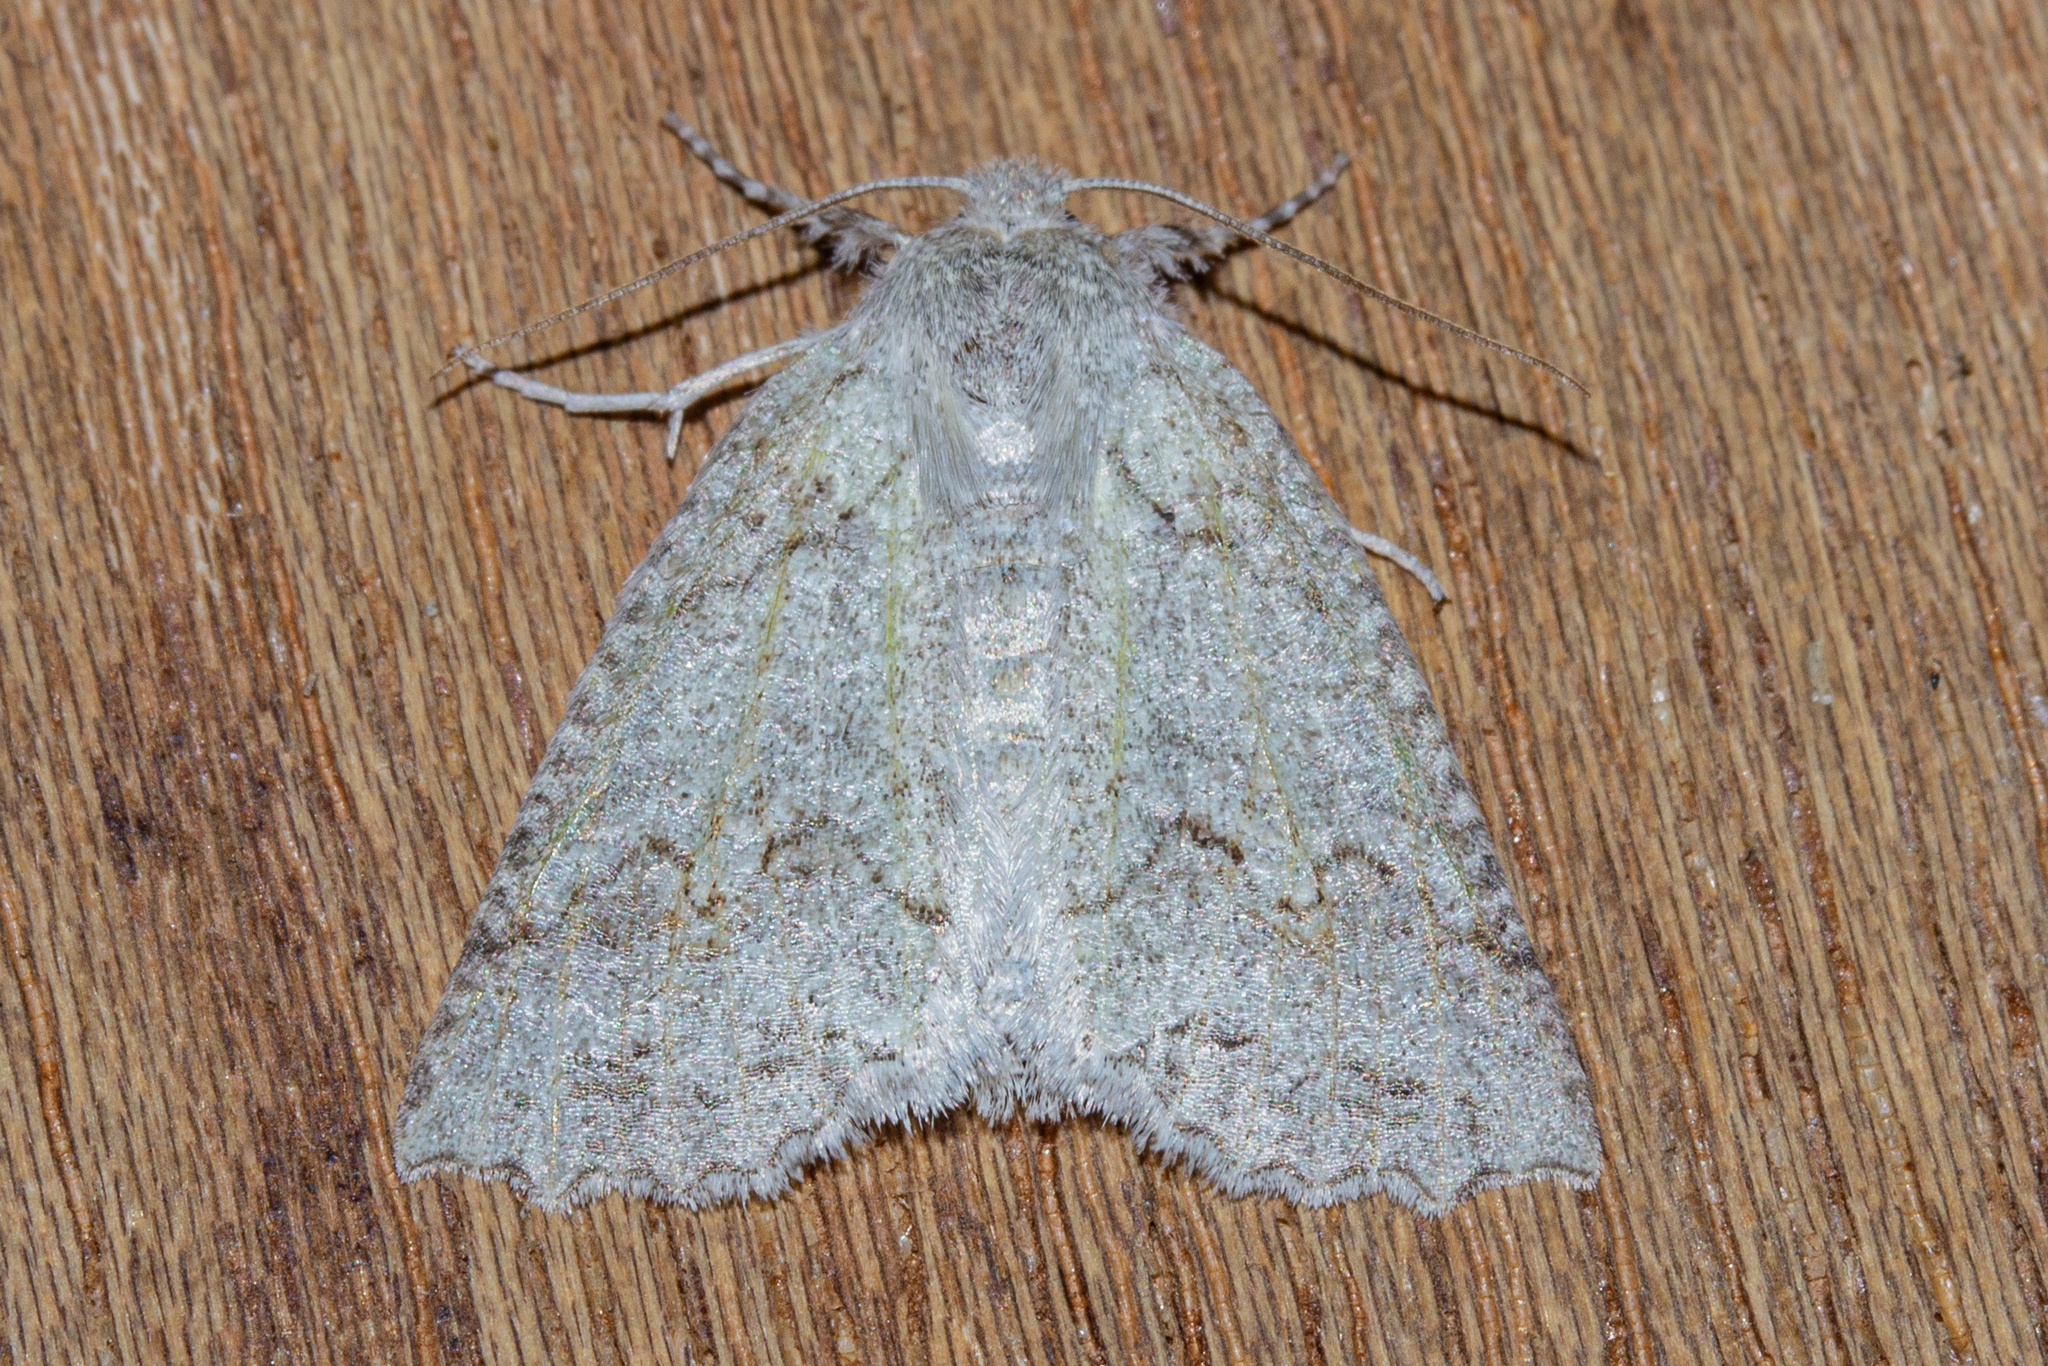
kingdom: Animalia
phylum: Arthropoda
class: Insecta
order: Lepidoptera
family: Geometridae
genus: Declana
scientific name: Declana niveata
